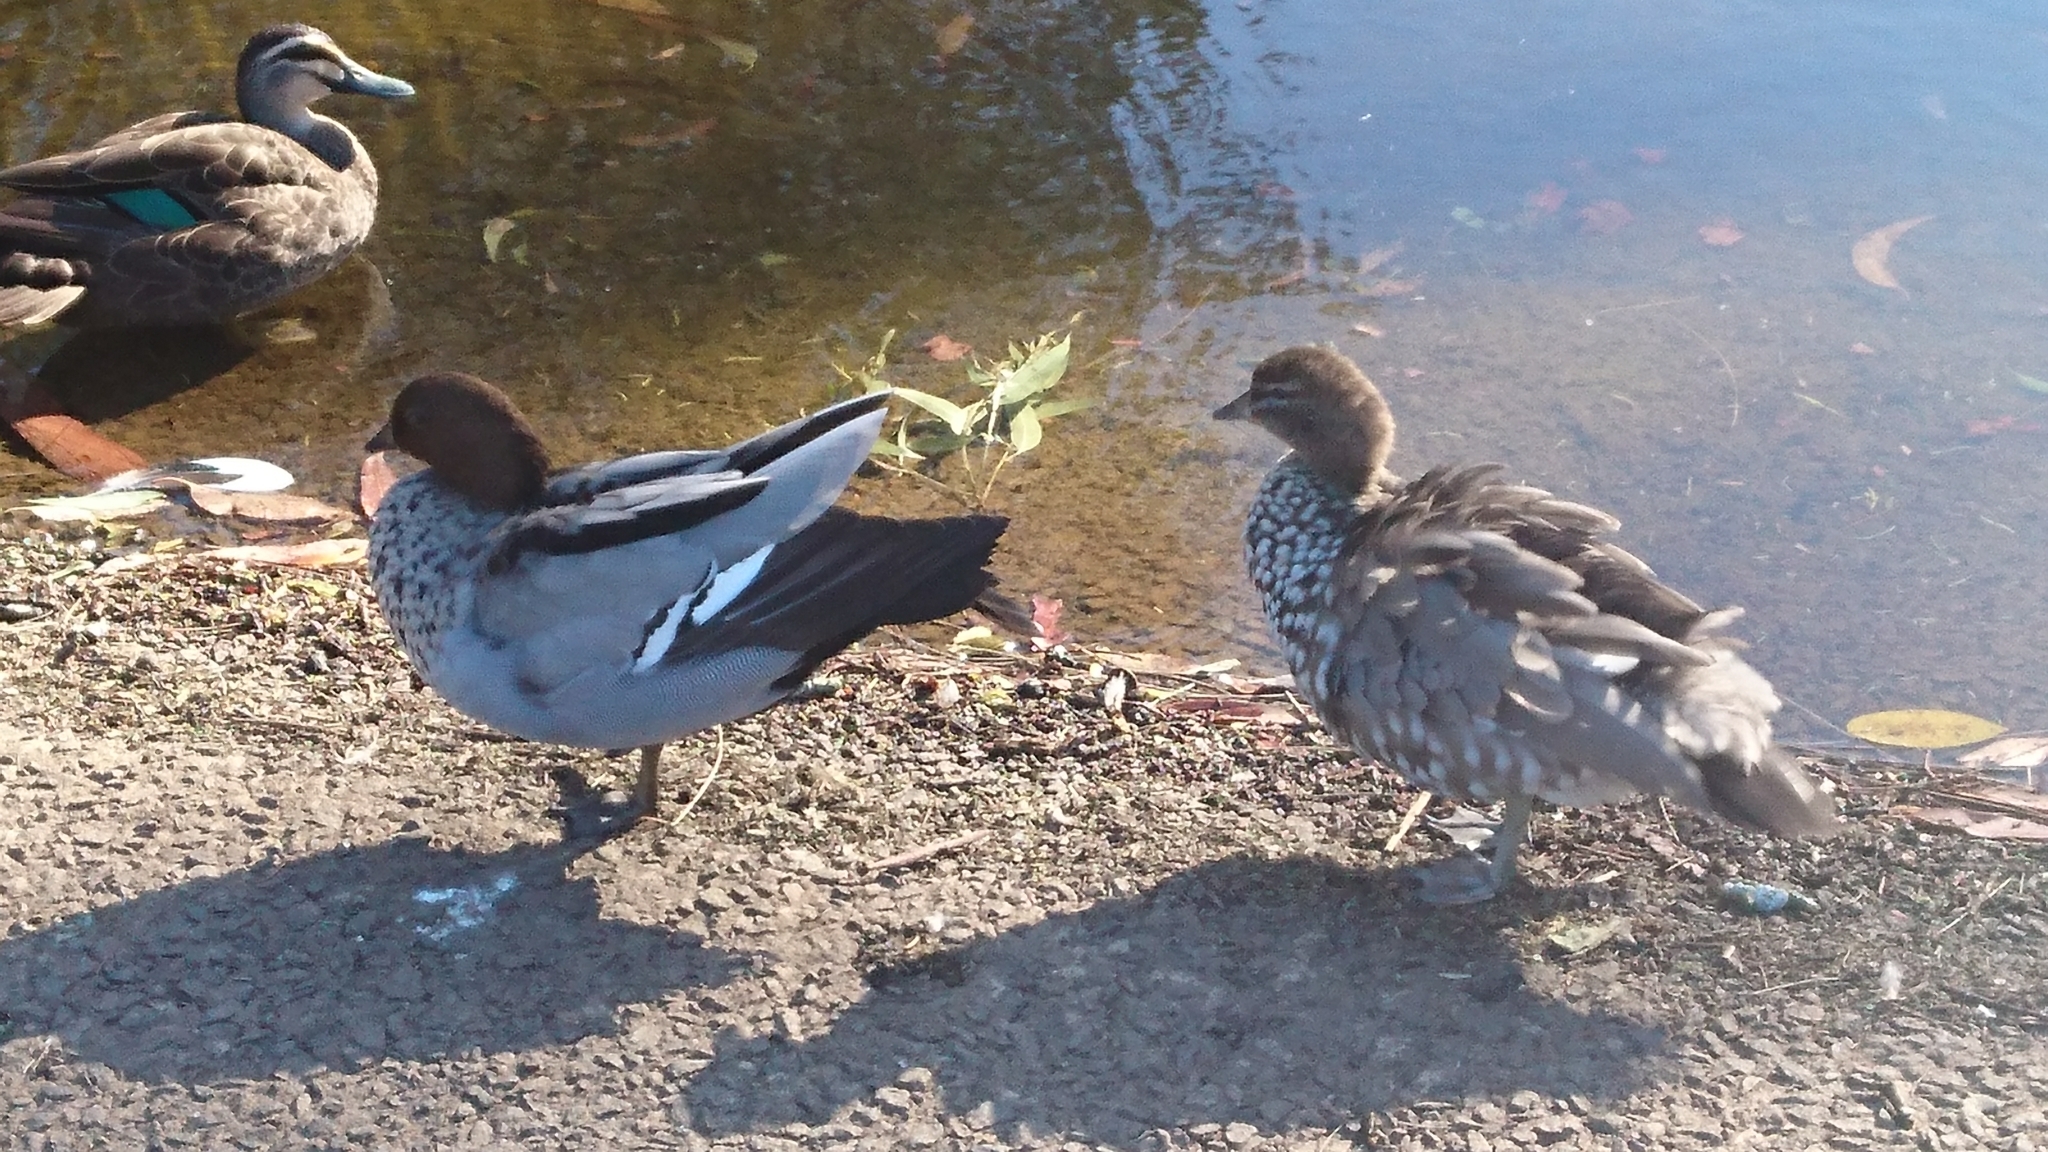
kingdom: Animalia
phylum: Chordata
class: Aves
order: Anseriformes
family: Anatidae
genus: Chenonetta
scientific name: Chenonetta jubata
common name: Maned duck
